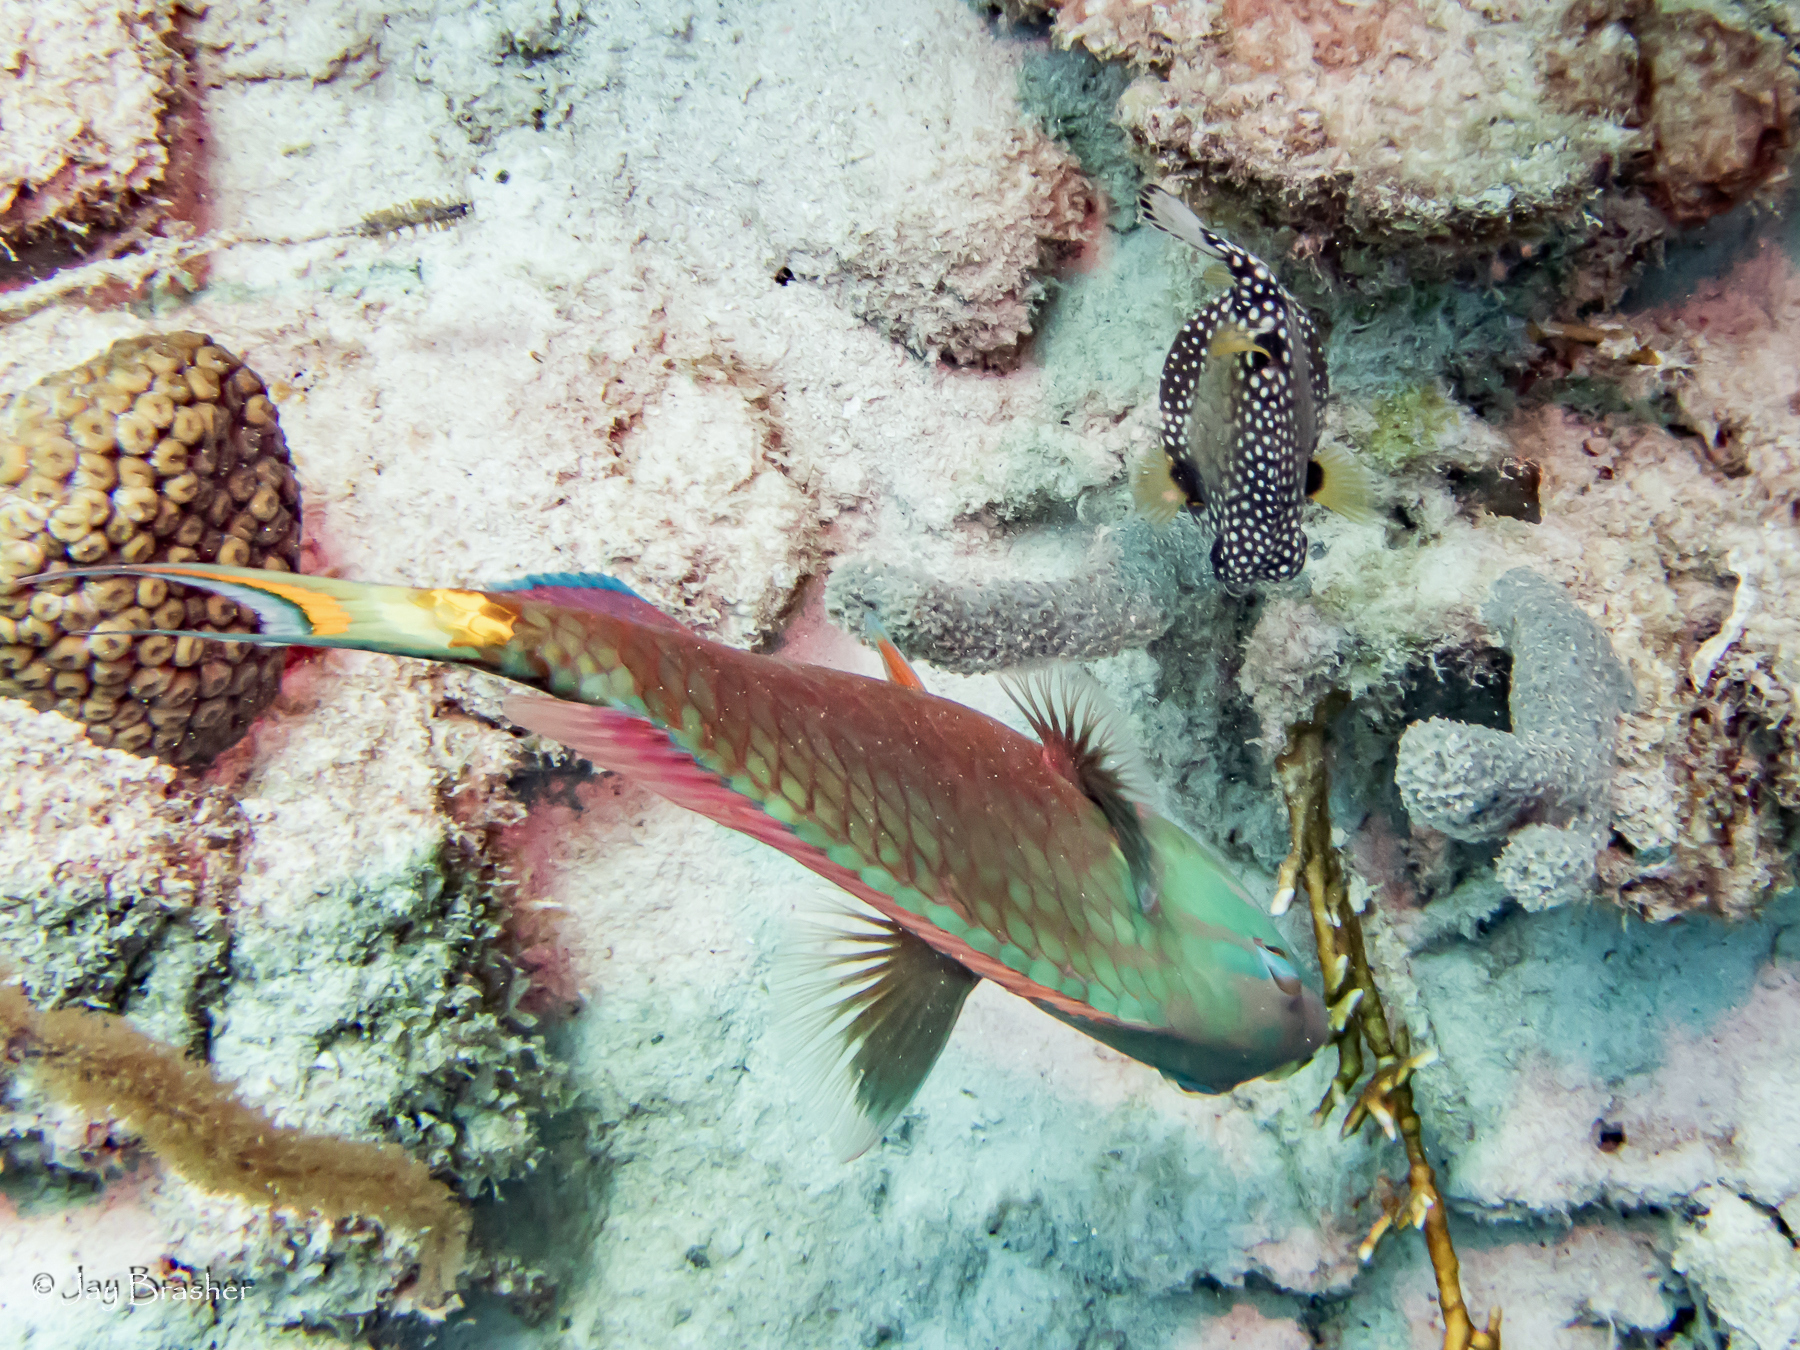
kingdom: Animalia
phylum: Porifera
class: Demospongiae
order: Haplosclerida
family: Niphatidae
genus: Niphates
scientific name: Niphates erecta
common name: Lavender rope sponge
